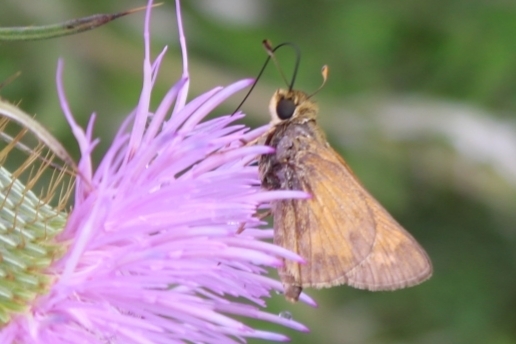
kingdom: Animalia
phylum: Arthropoda
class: Insecta
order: Lepidoptera
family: Hesperiidae
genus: Atalopedes
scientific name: Atalopedes
